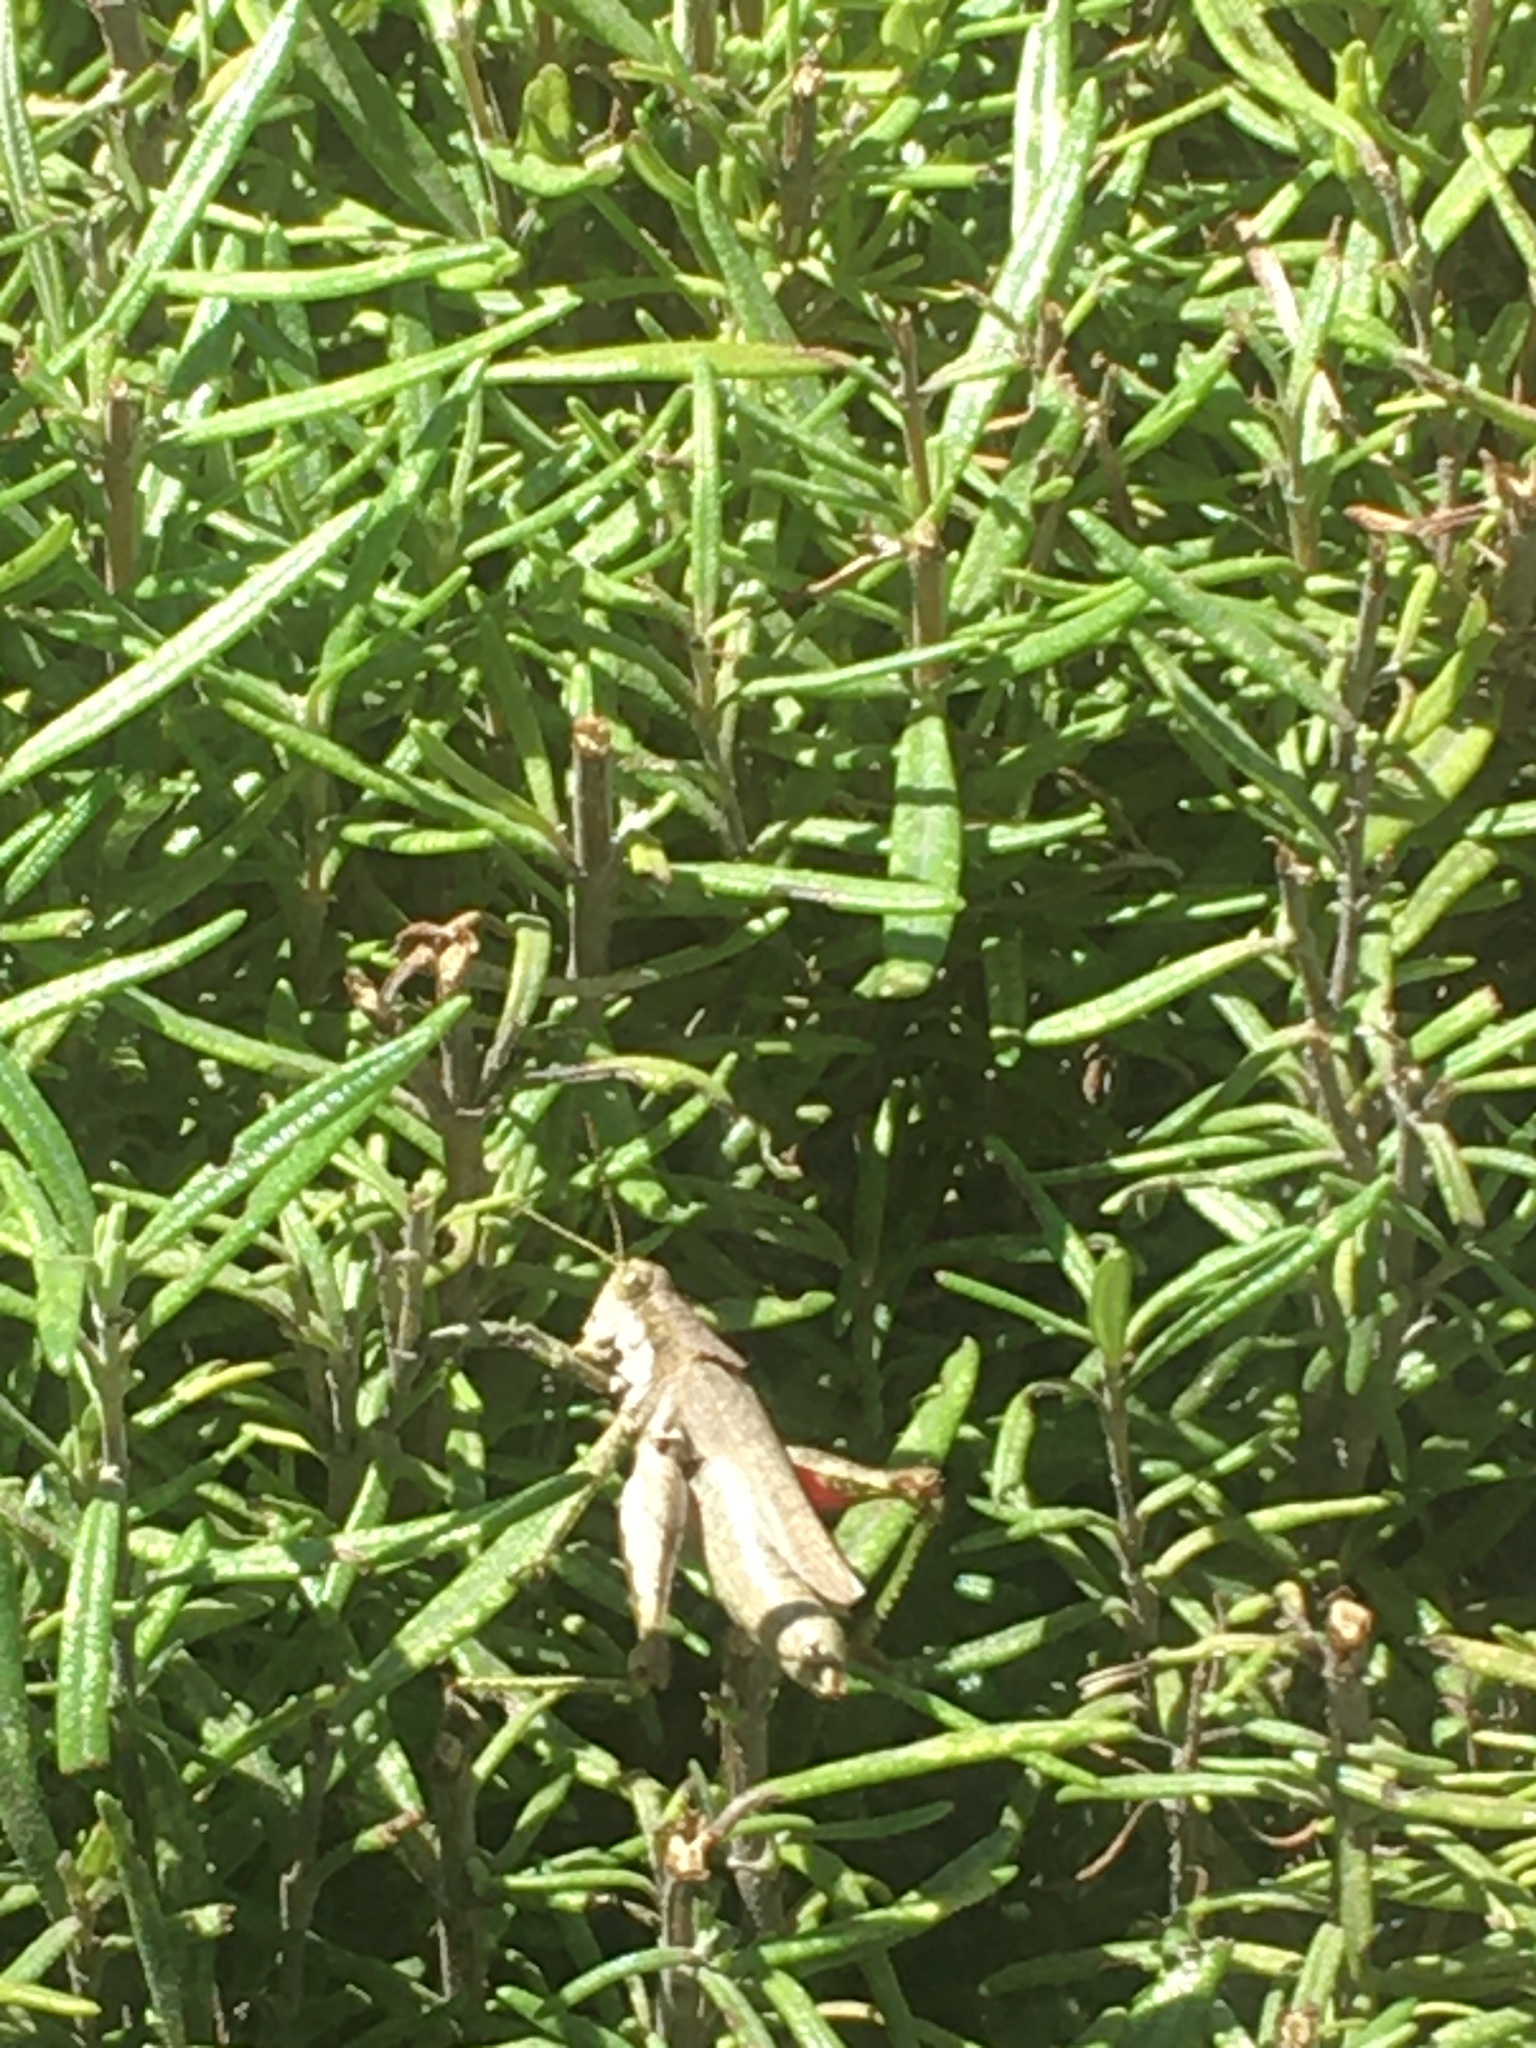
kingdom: Animalia
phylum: Arthropoda
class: Insecta
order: Orthoptera
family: Acrididae
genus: Ronderosia
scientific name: Ronderosia bergii
